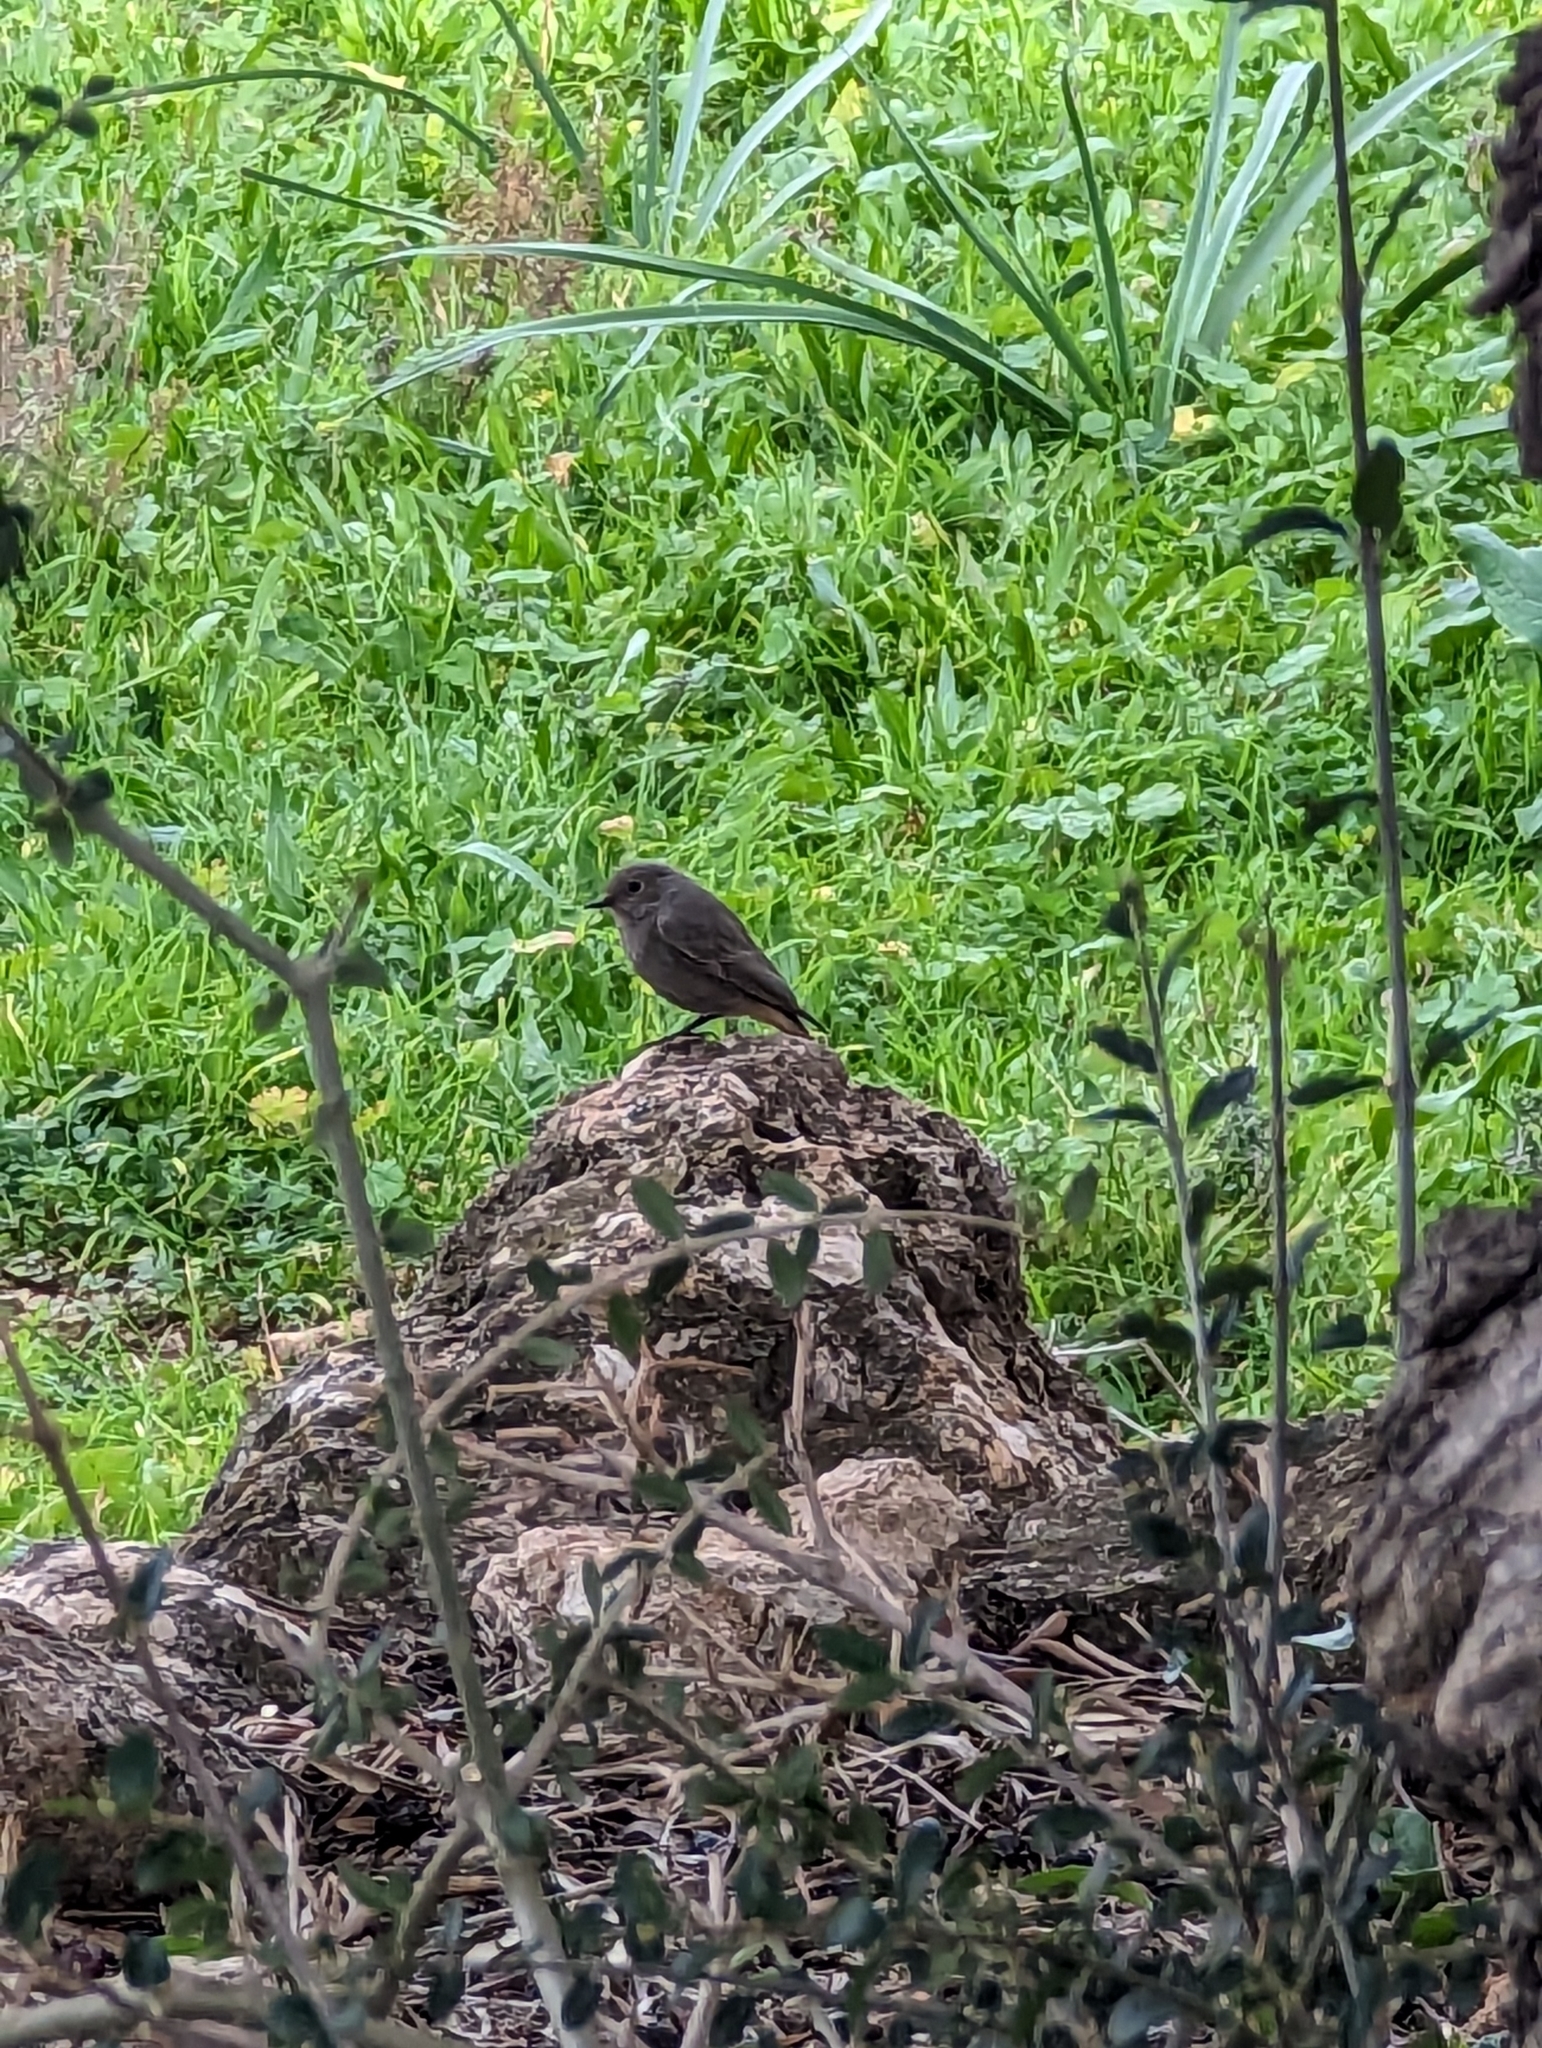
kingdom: Animalia
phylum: Chordata
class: Aves
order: Passeriformes
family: Muscicapidae
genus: Phoenicurus
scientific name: Phoenicurus ochruros
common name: Black redstart
